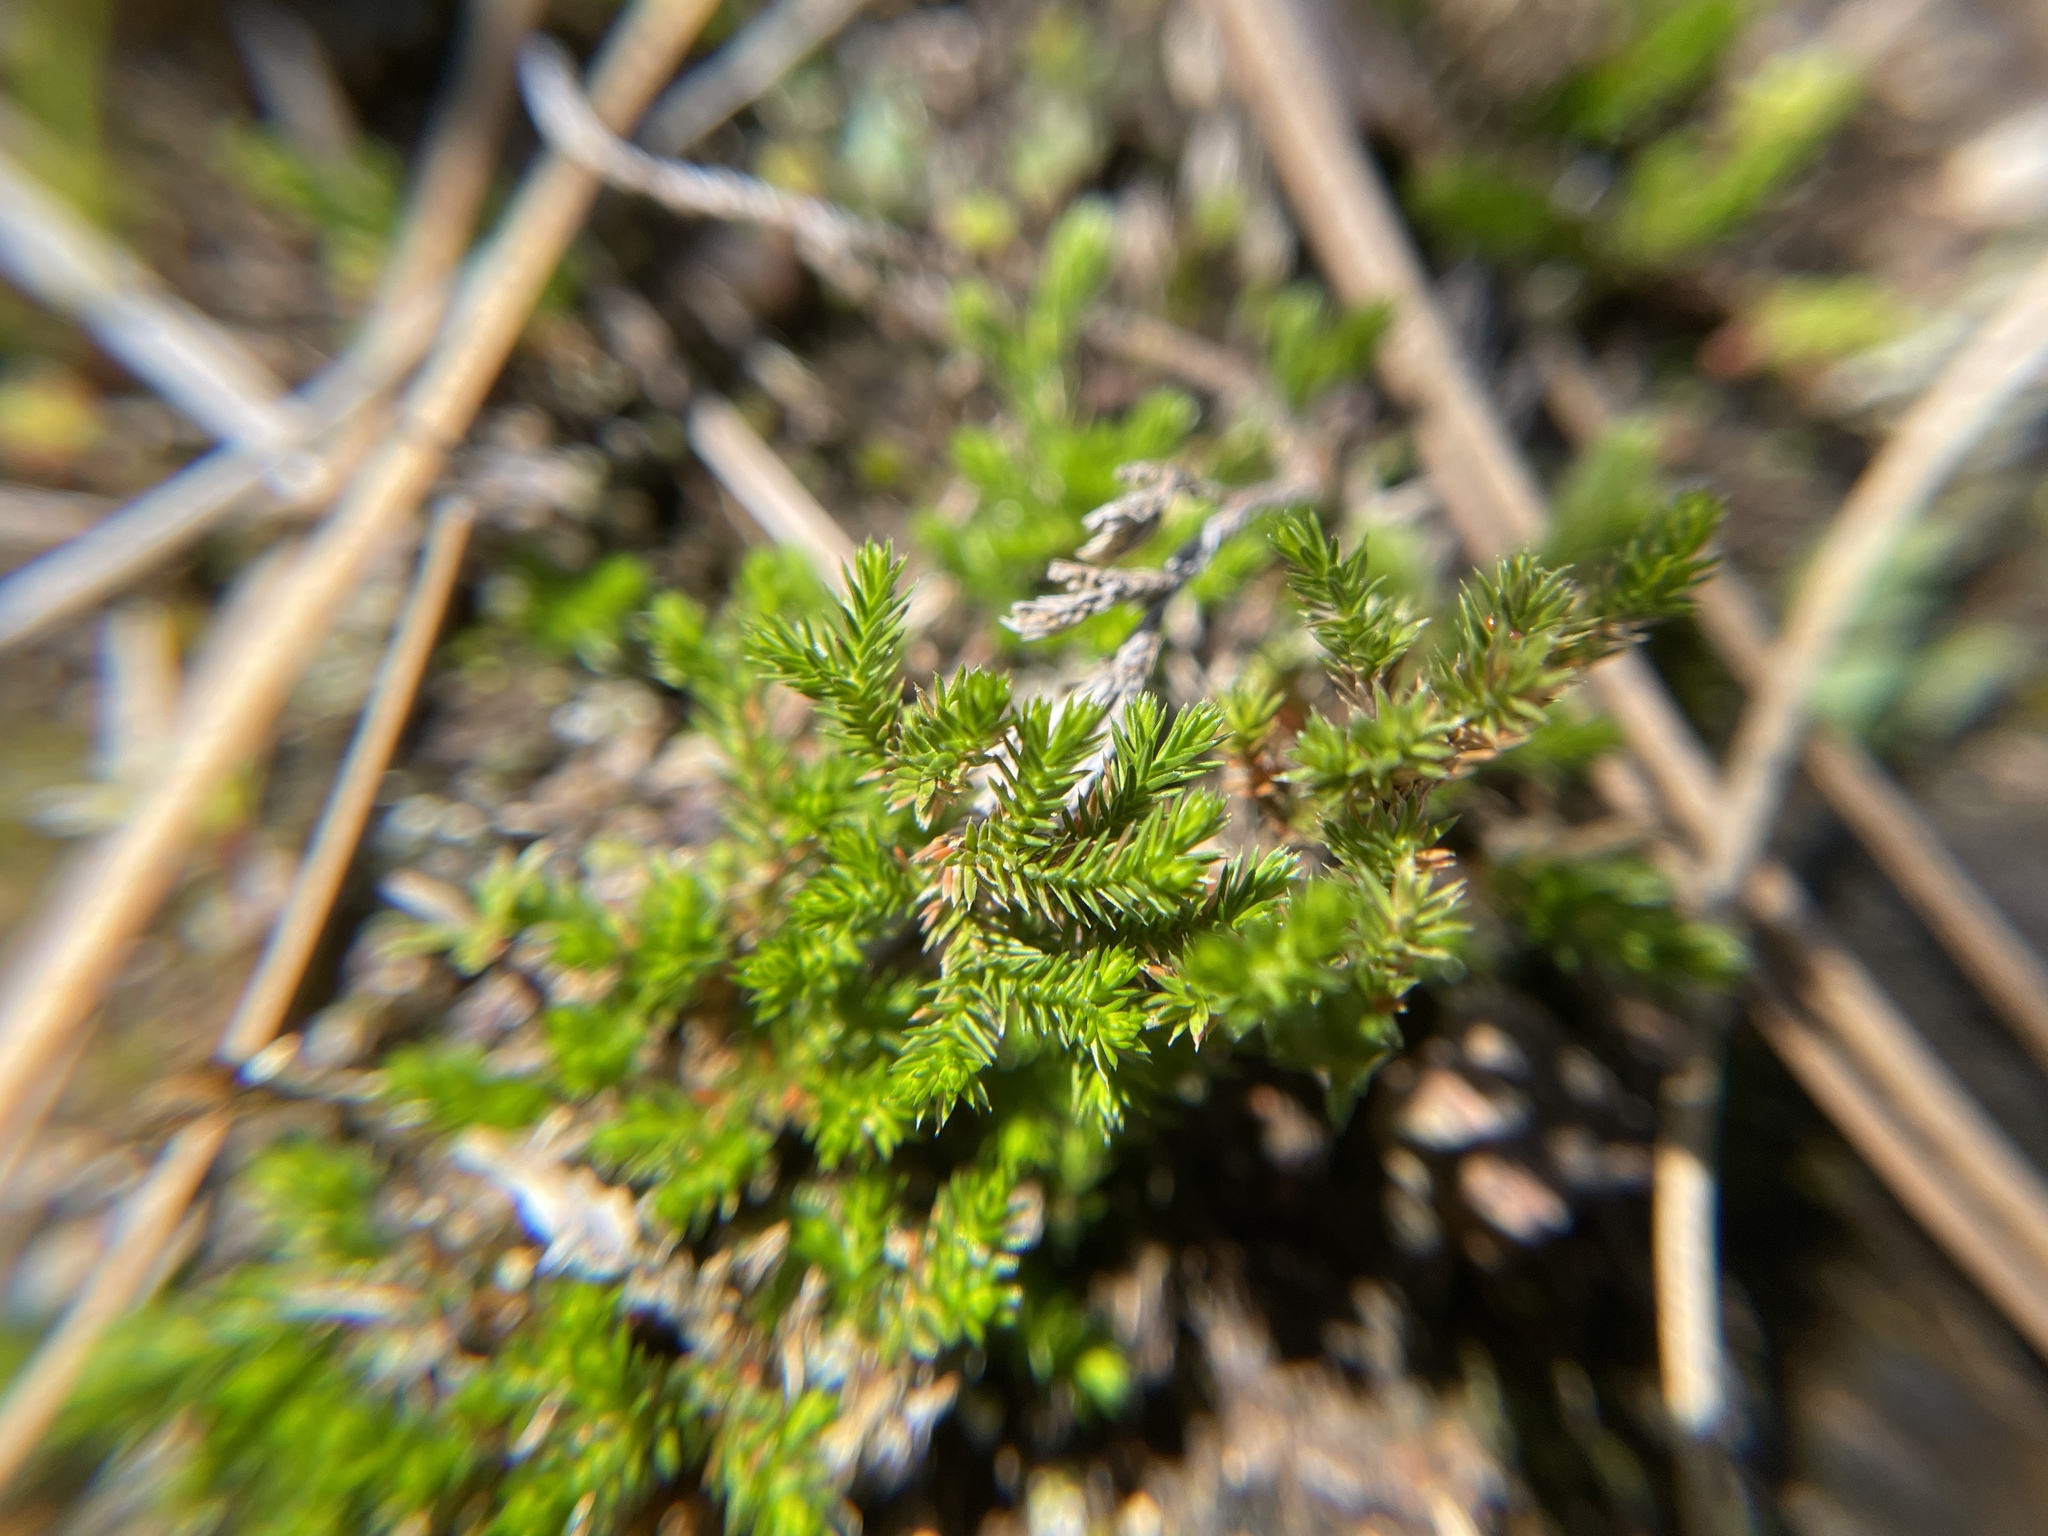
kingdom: Plantae
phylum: Tracheophyta
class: Lycopodiopsida
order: Selaginellales
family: Selaginellaceae
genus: Selaginella
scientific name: Selaginella bigelovii
